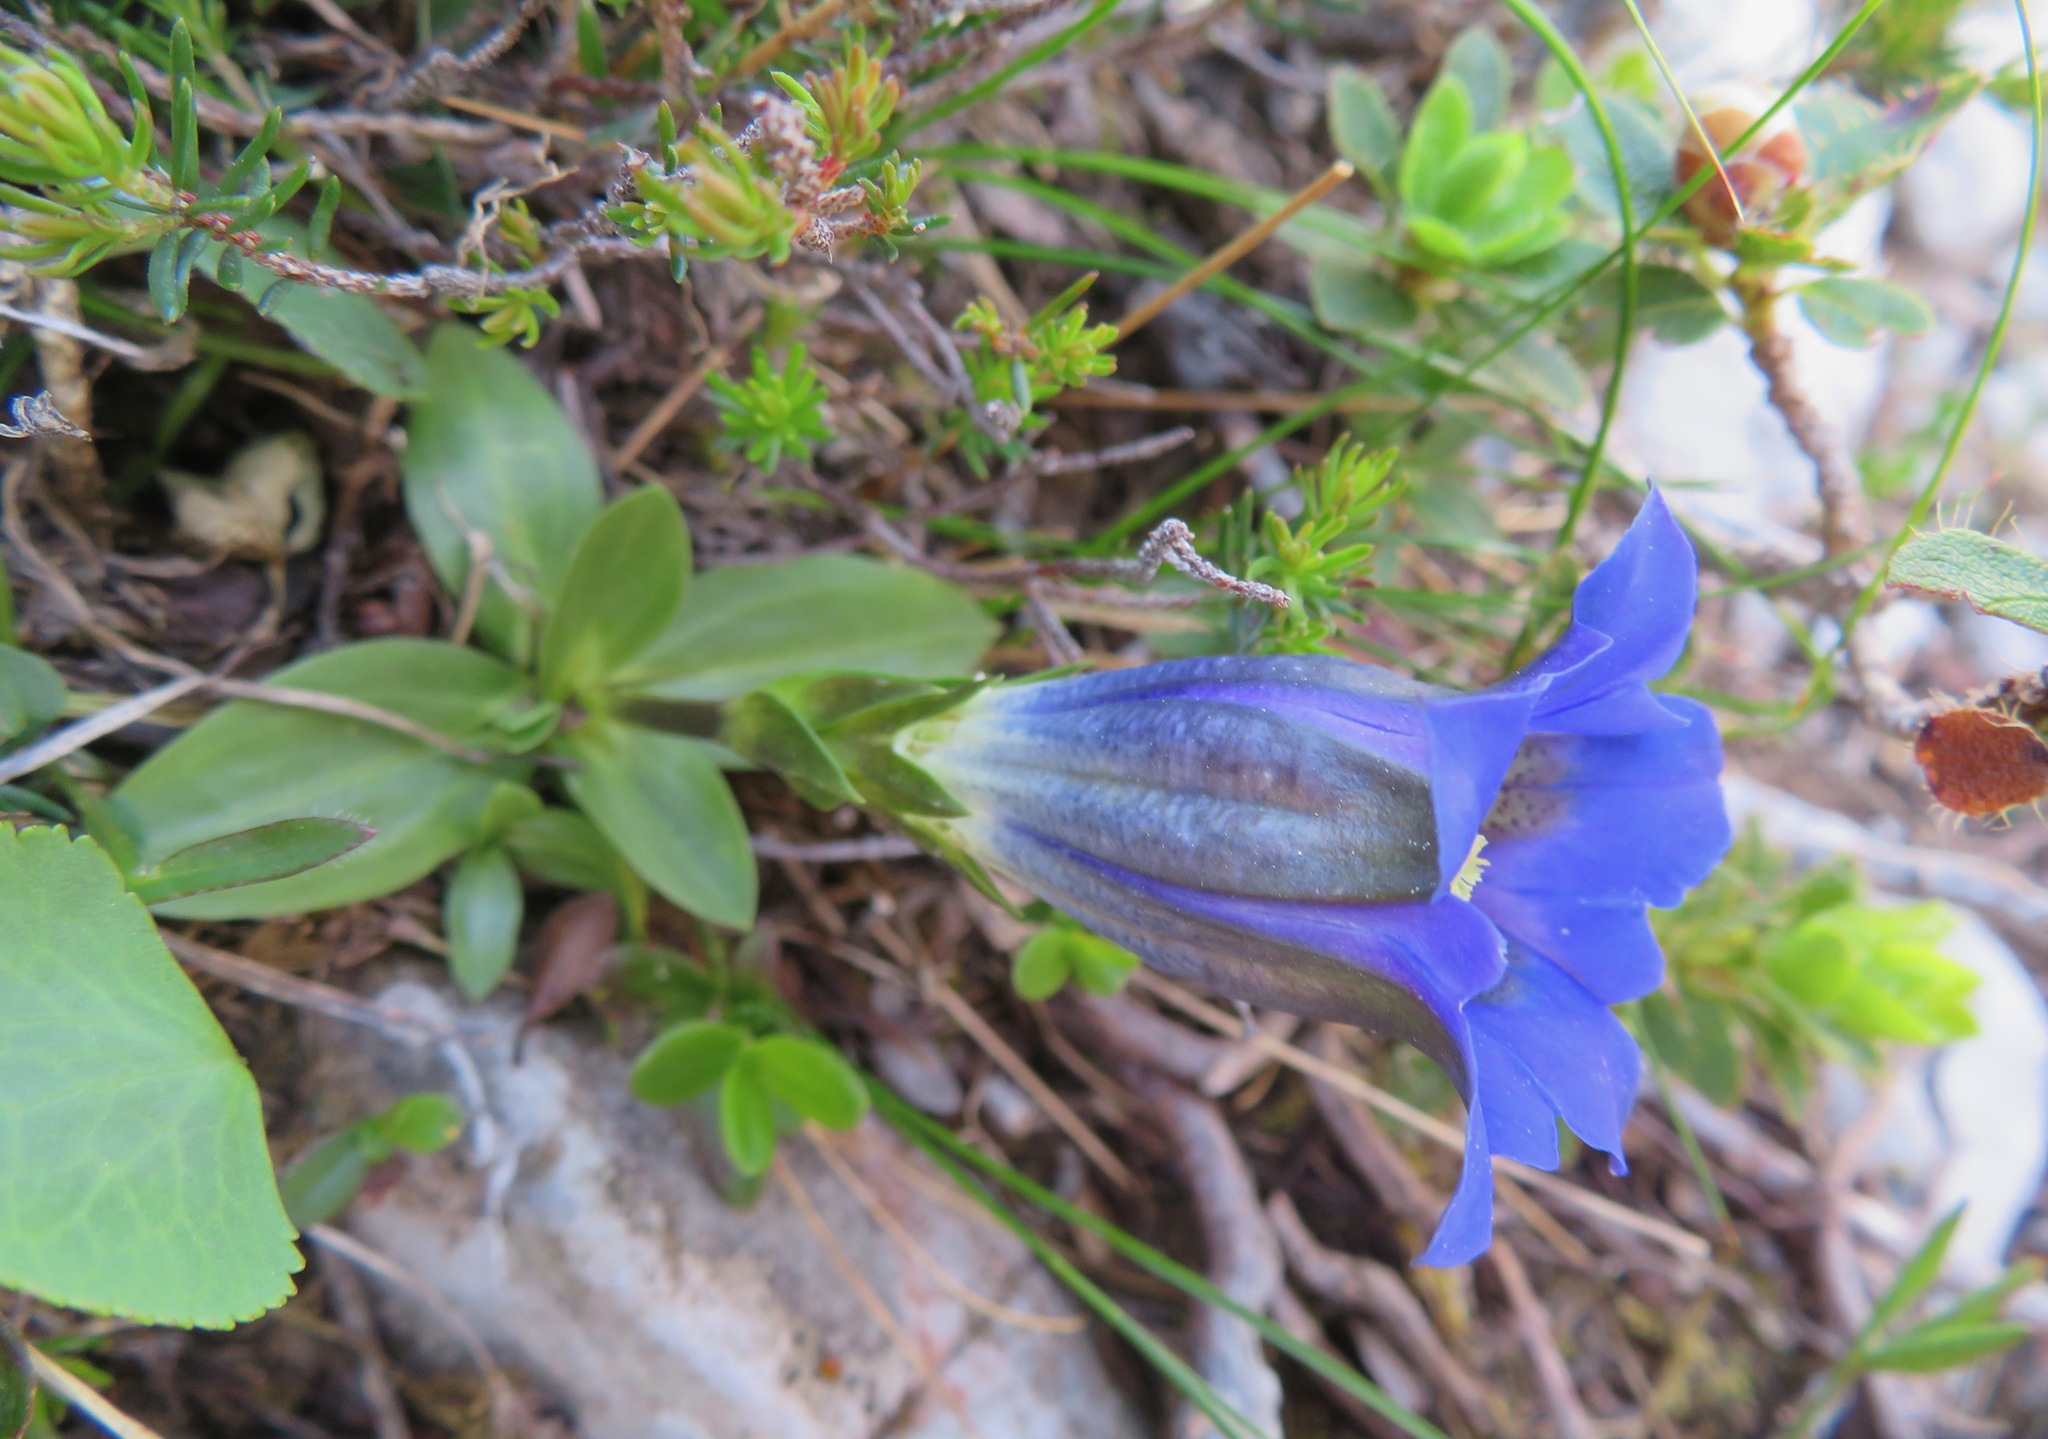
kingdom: Plantae
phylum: Tracheophyta
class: Magnoliopsida
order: Gentianales
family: Gentianaceae
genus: Gentiana
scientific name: Gentiana acaulis
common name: Trumpet gentian
